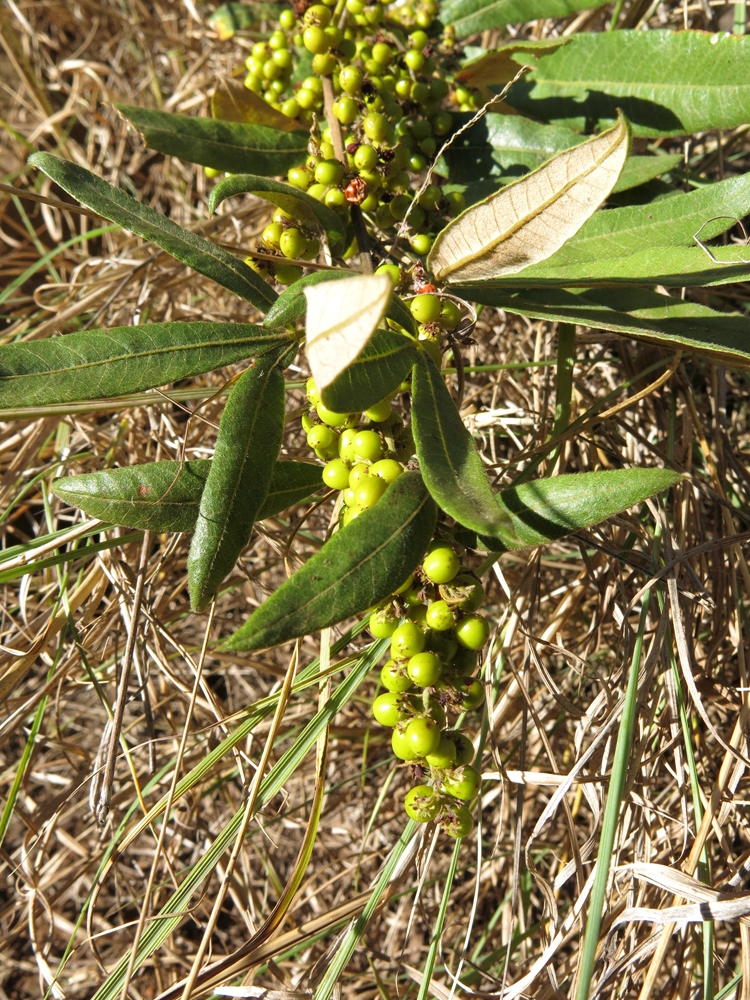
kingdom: Plantae
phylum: Tracheophyta
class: Magnoliopsida
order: Sapindales
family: Anacardiaceae
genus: Searsia
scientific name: Searsia discolor
